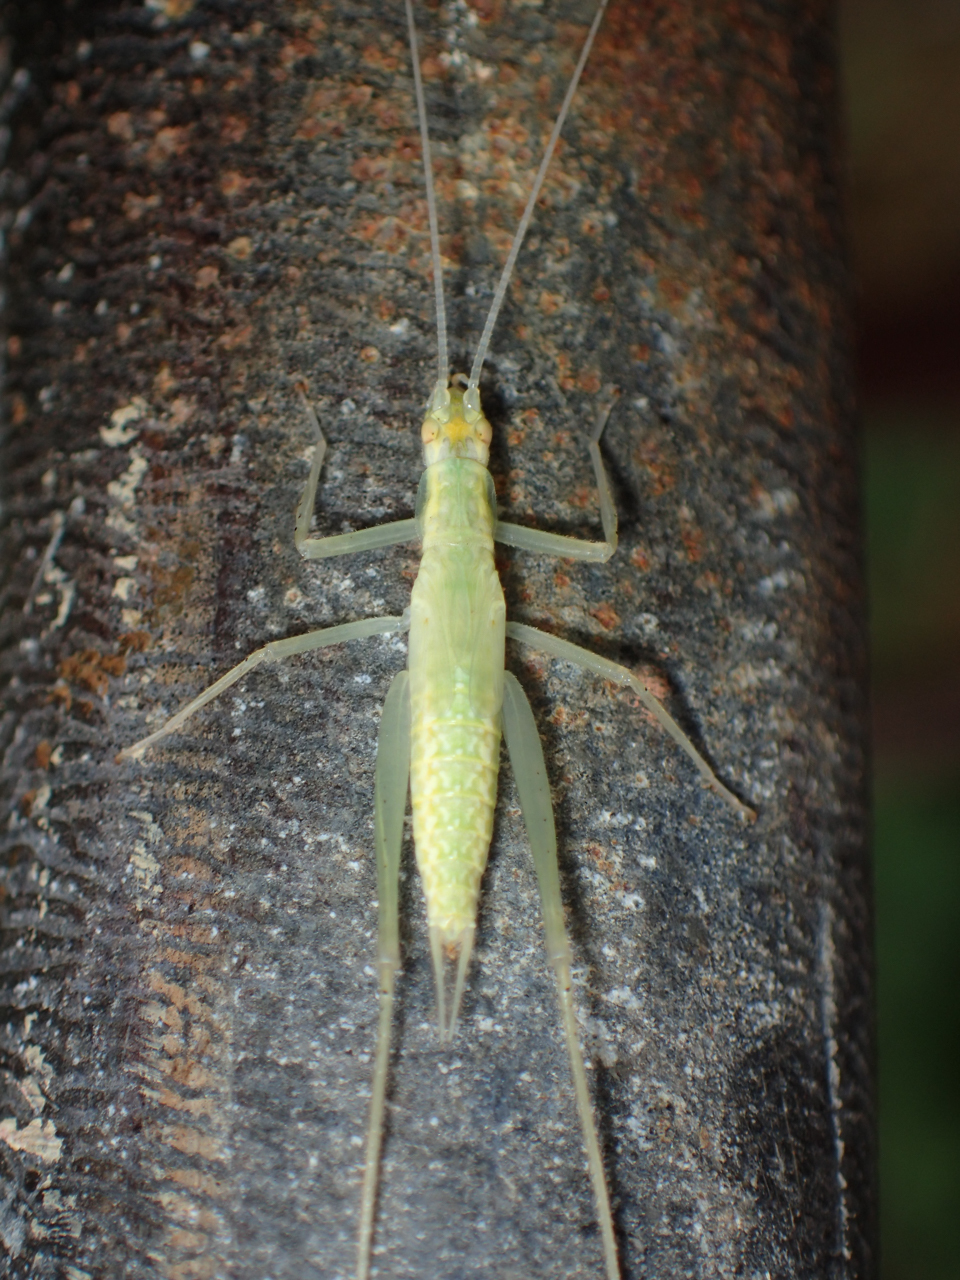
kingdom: Animalia
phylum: Arthropoda
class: Insecta
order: Orthoptera
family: Gryllidae
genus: Oecanthus
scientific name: Oecanthus niveus
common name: Narrow-winged tree cricket
